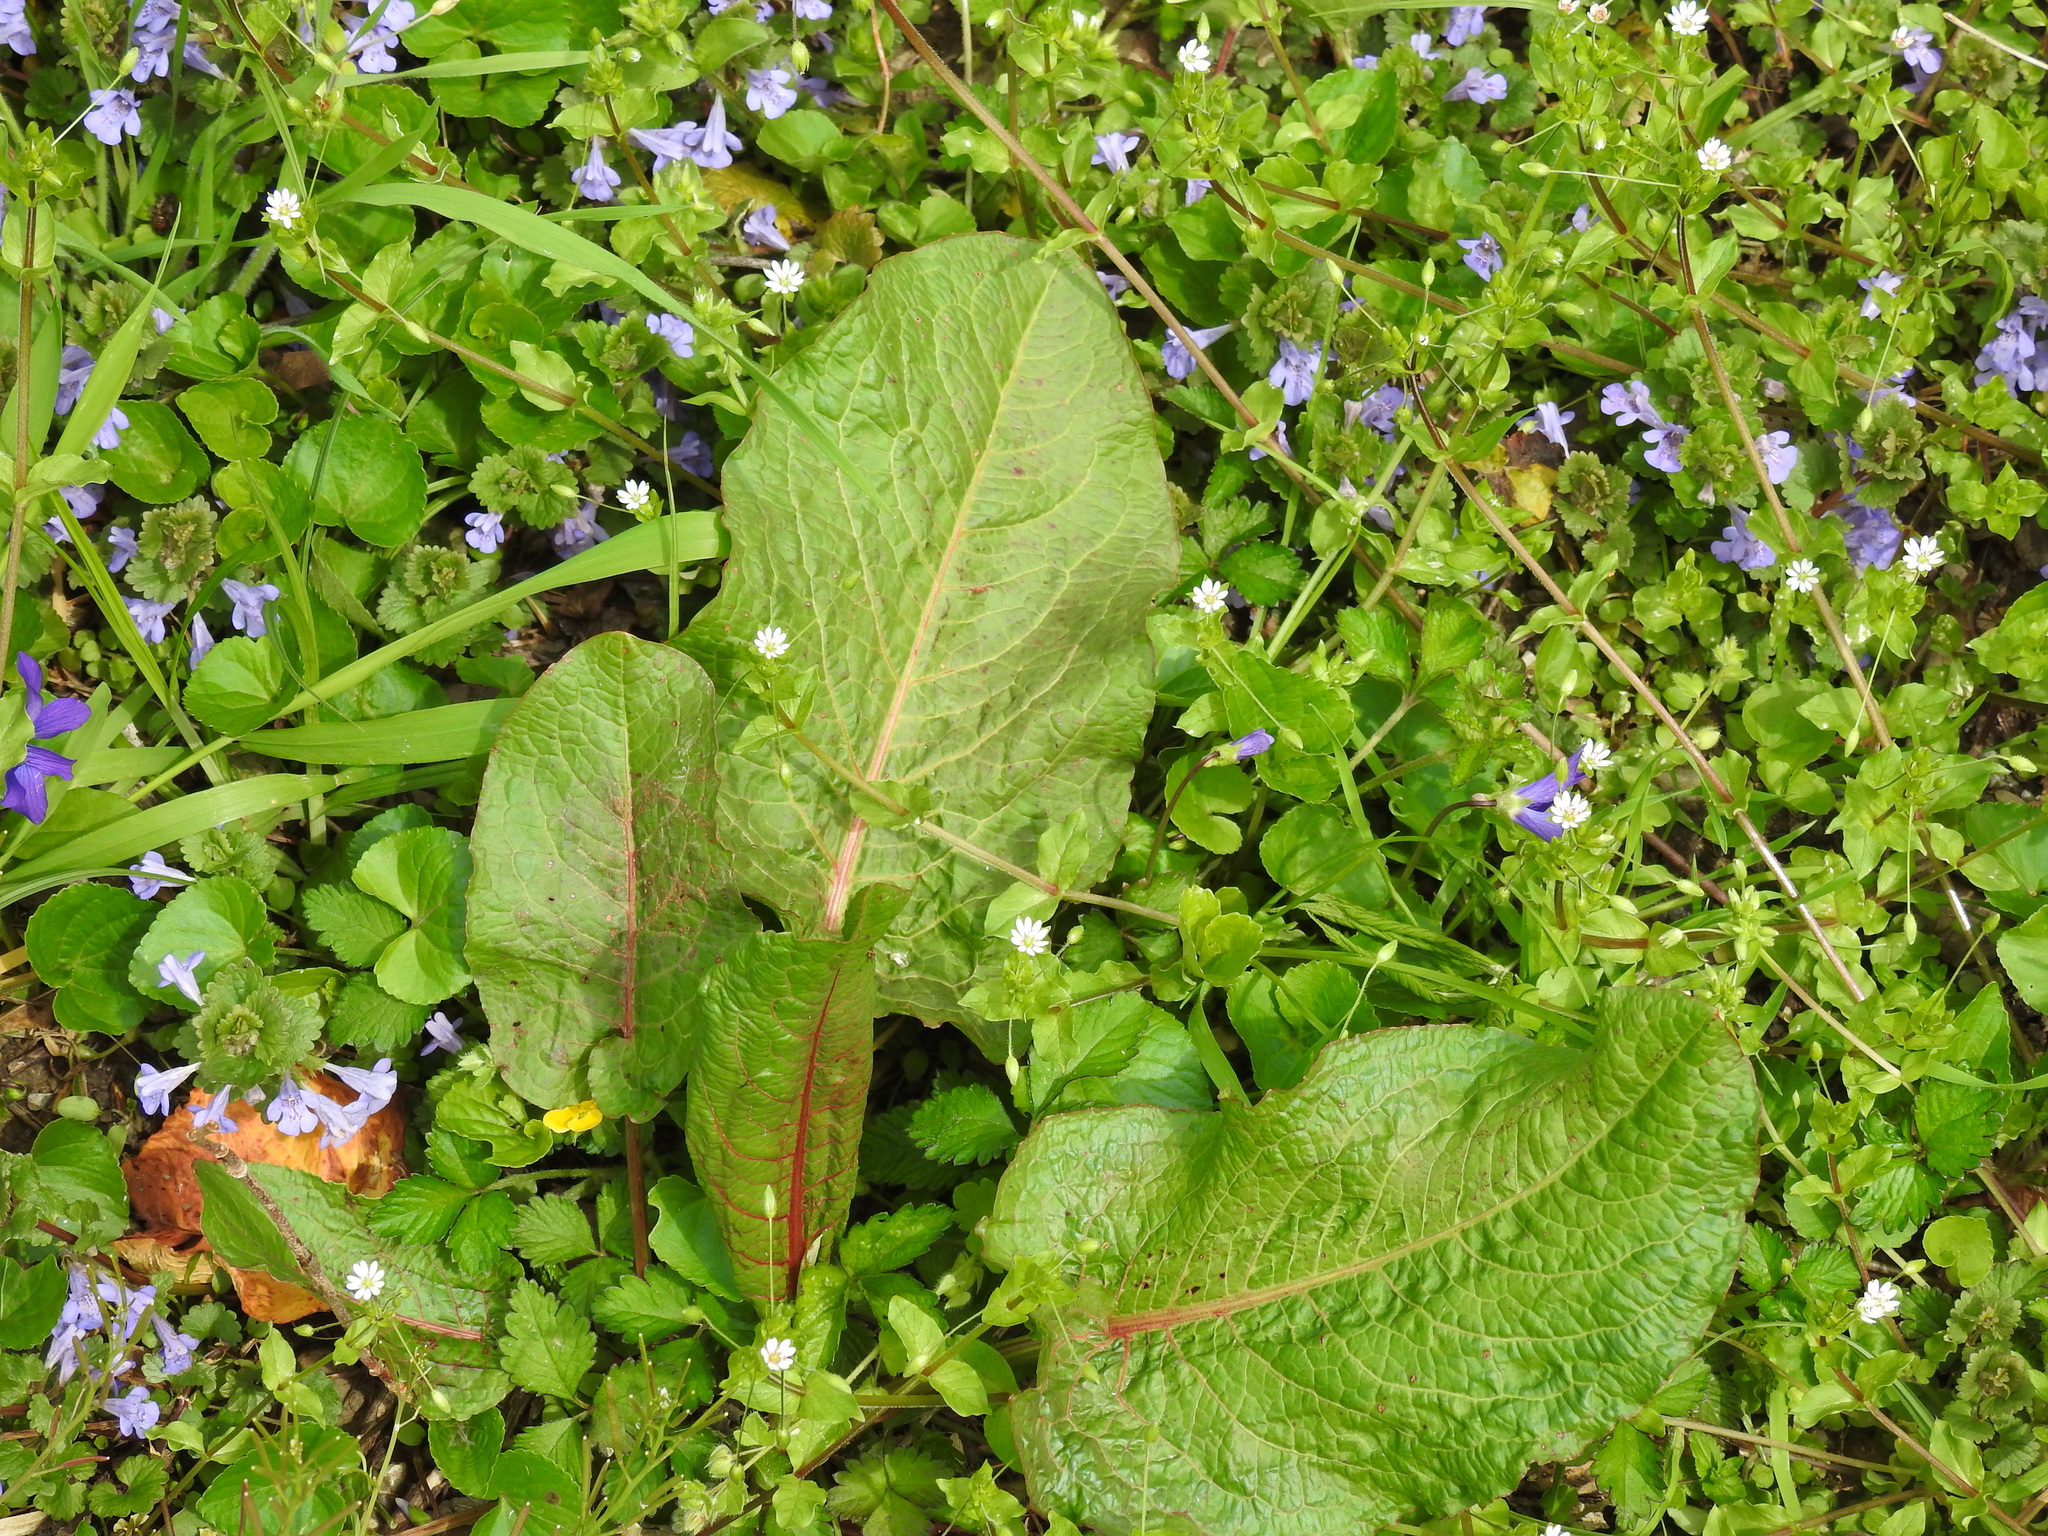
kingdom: Plantae
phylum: Tracheophyta
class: Magnoliopsida
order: Caryophyllales
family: Polygonaceae
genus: Rumex
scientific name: Rumex obtusifolius
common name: Bitter dock
